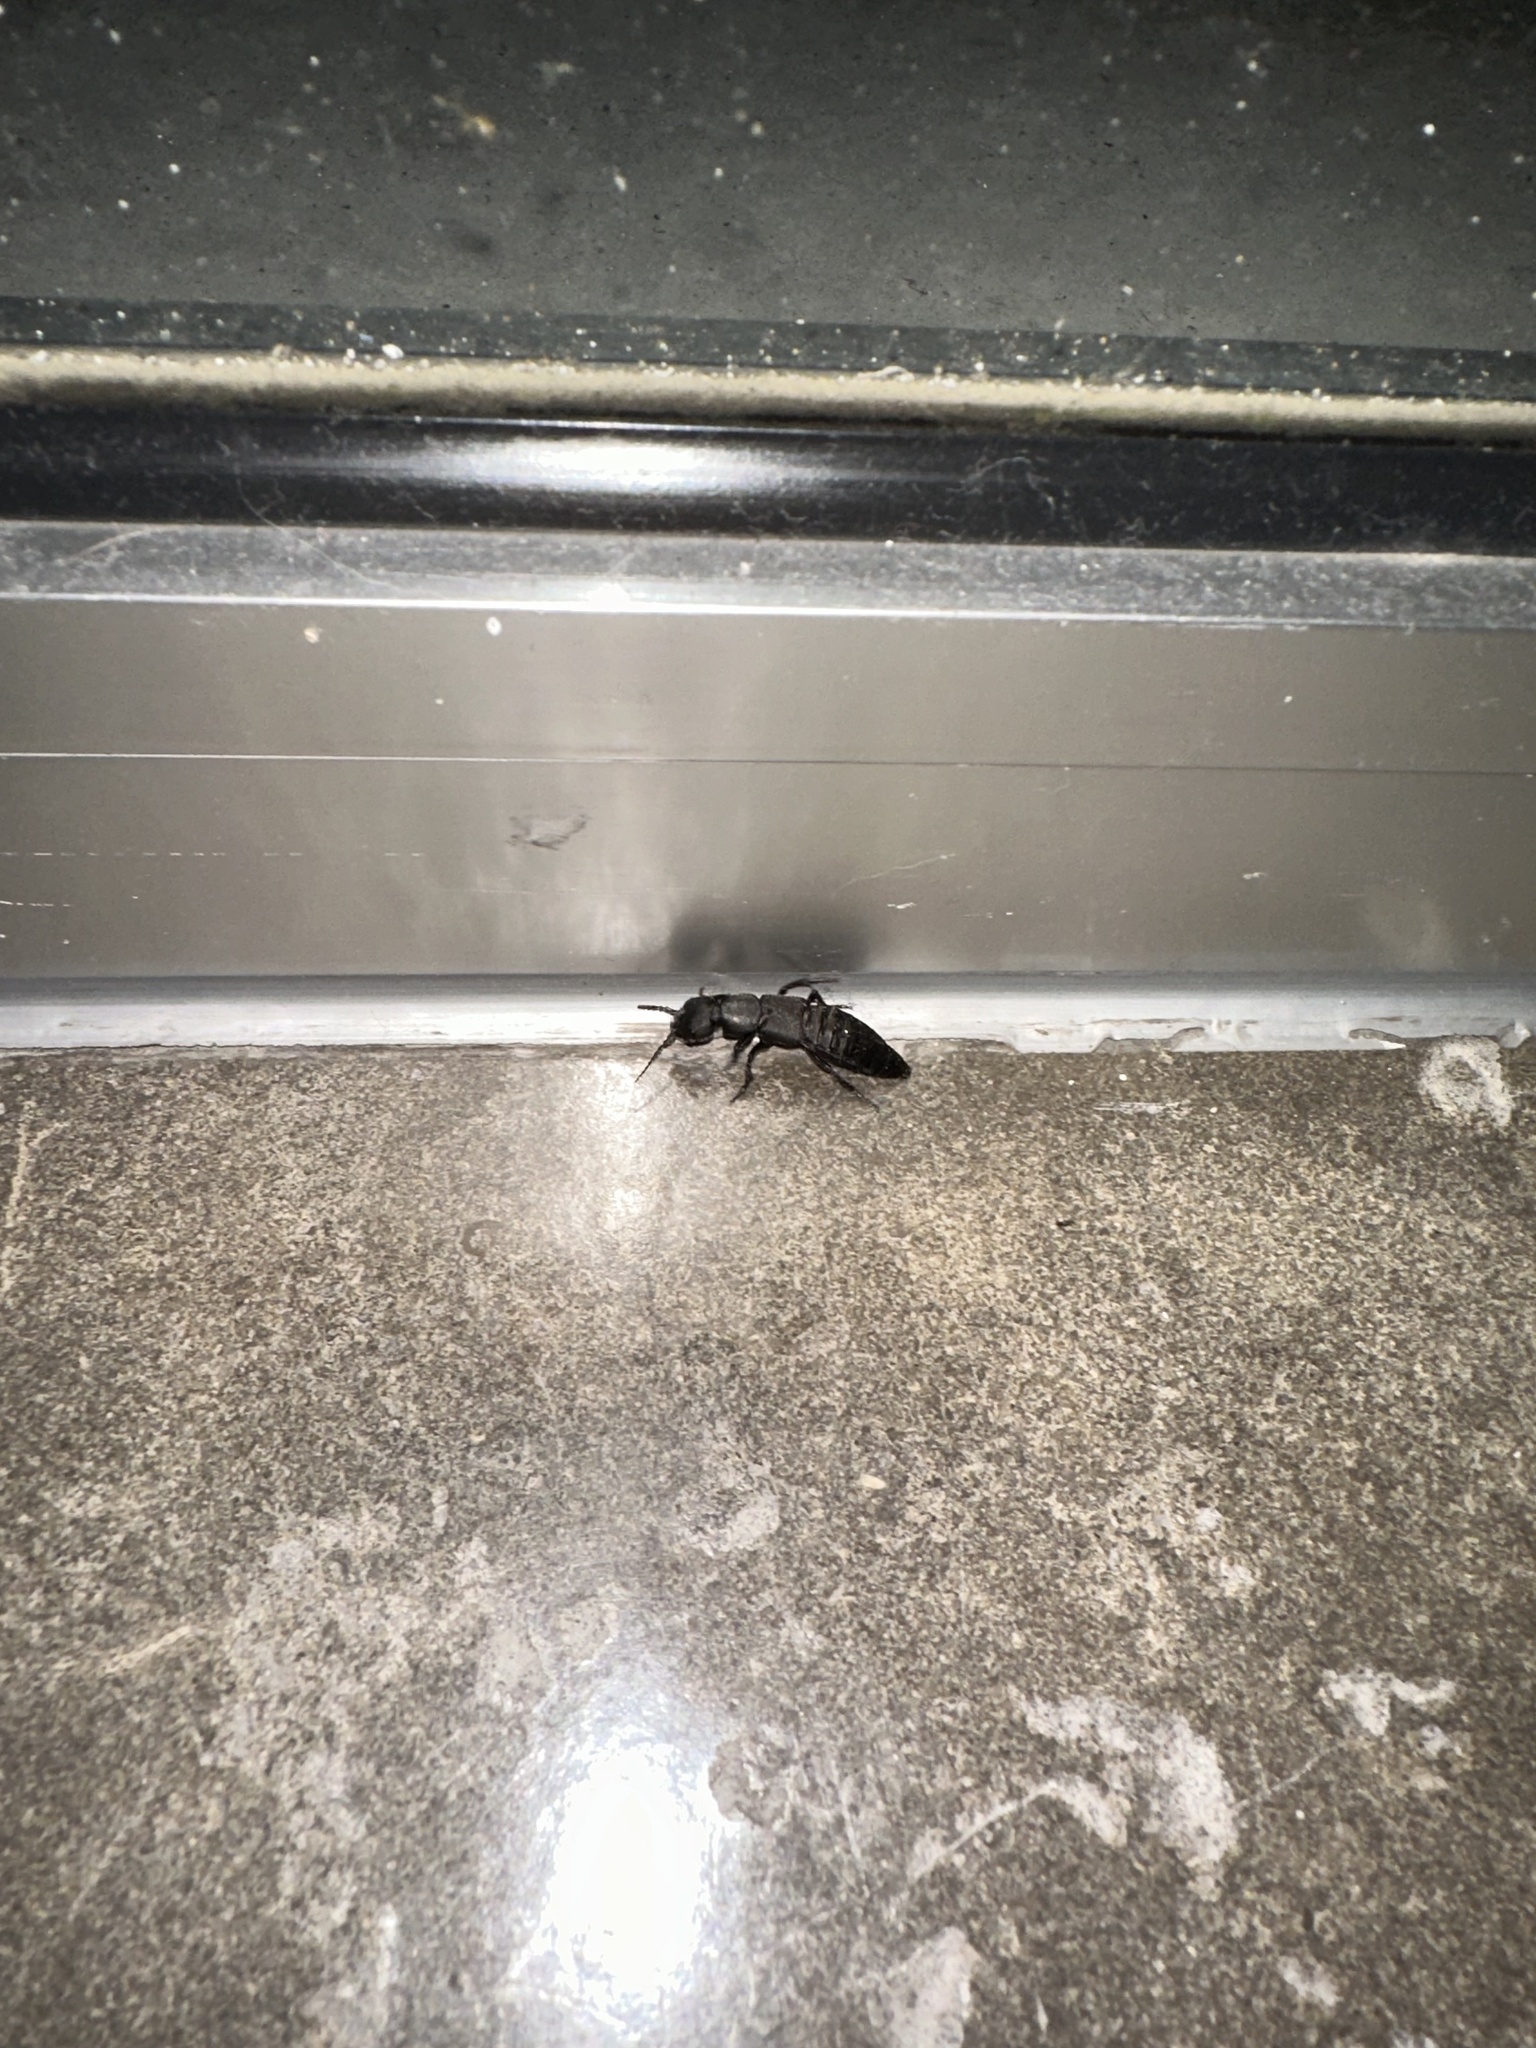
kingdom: Animalia
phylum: Arthropoda
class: Insecta
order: Coleoptera
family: Staphylinidae
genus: Ocypus
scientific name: Ocypus olens
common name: Devil's coach-horse
